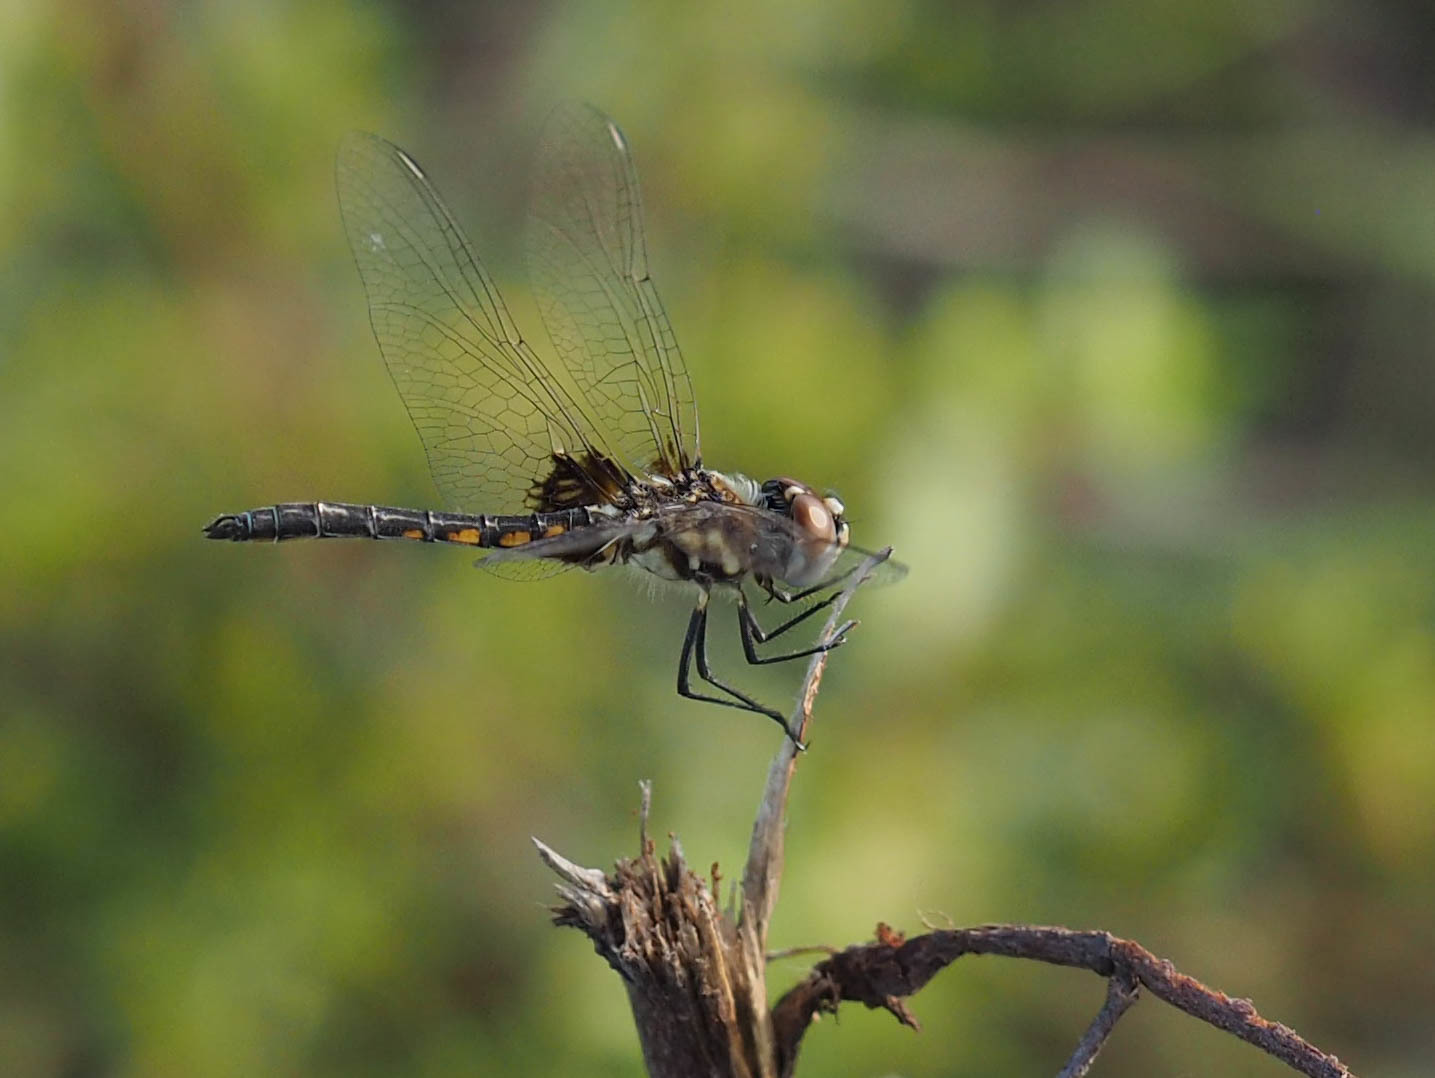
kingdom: Animalia
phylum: Arthropoda
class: Insecta
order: Odonata
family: Libellulidae
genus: Macrodiplax
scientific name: Macrodiplax balteata
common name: Marl pennant
